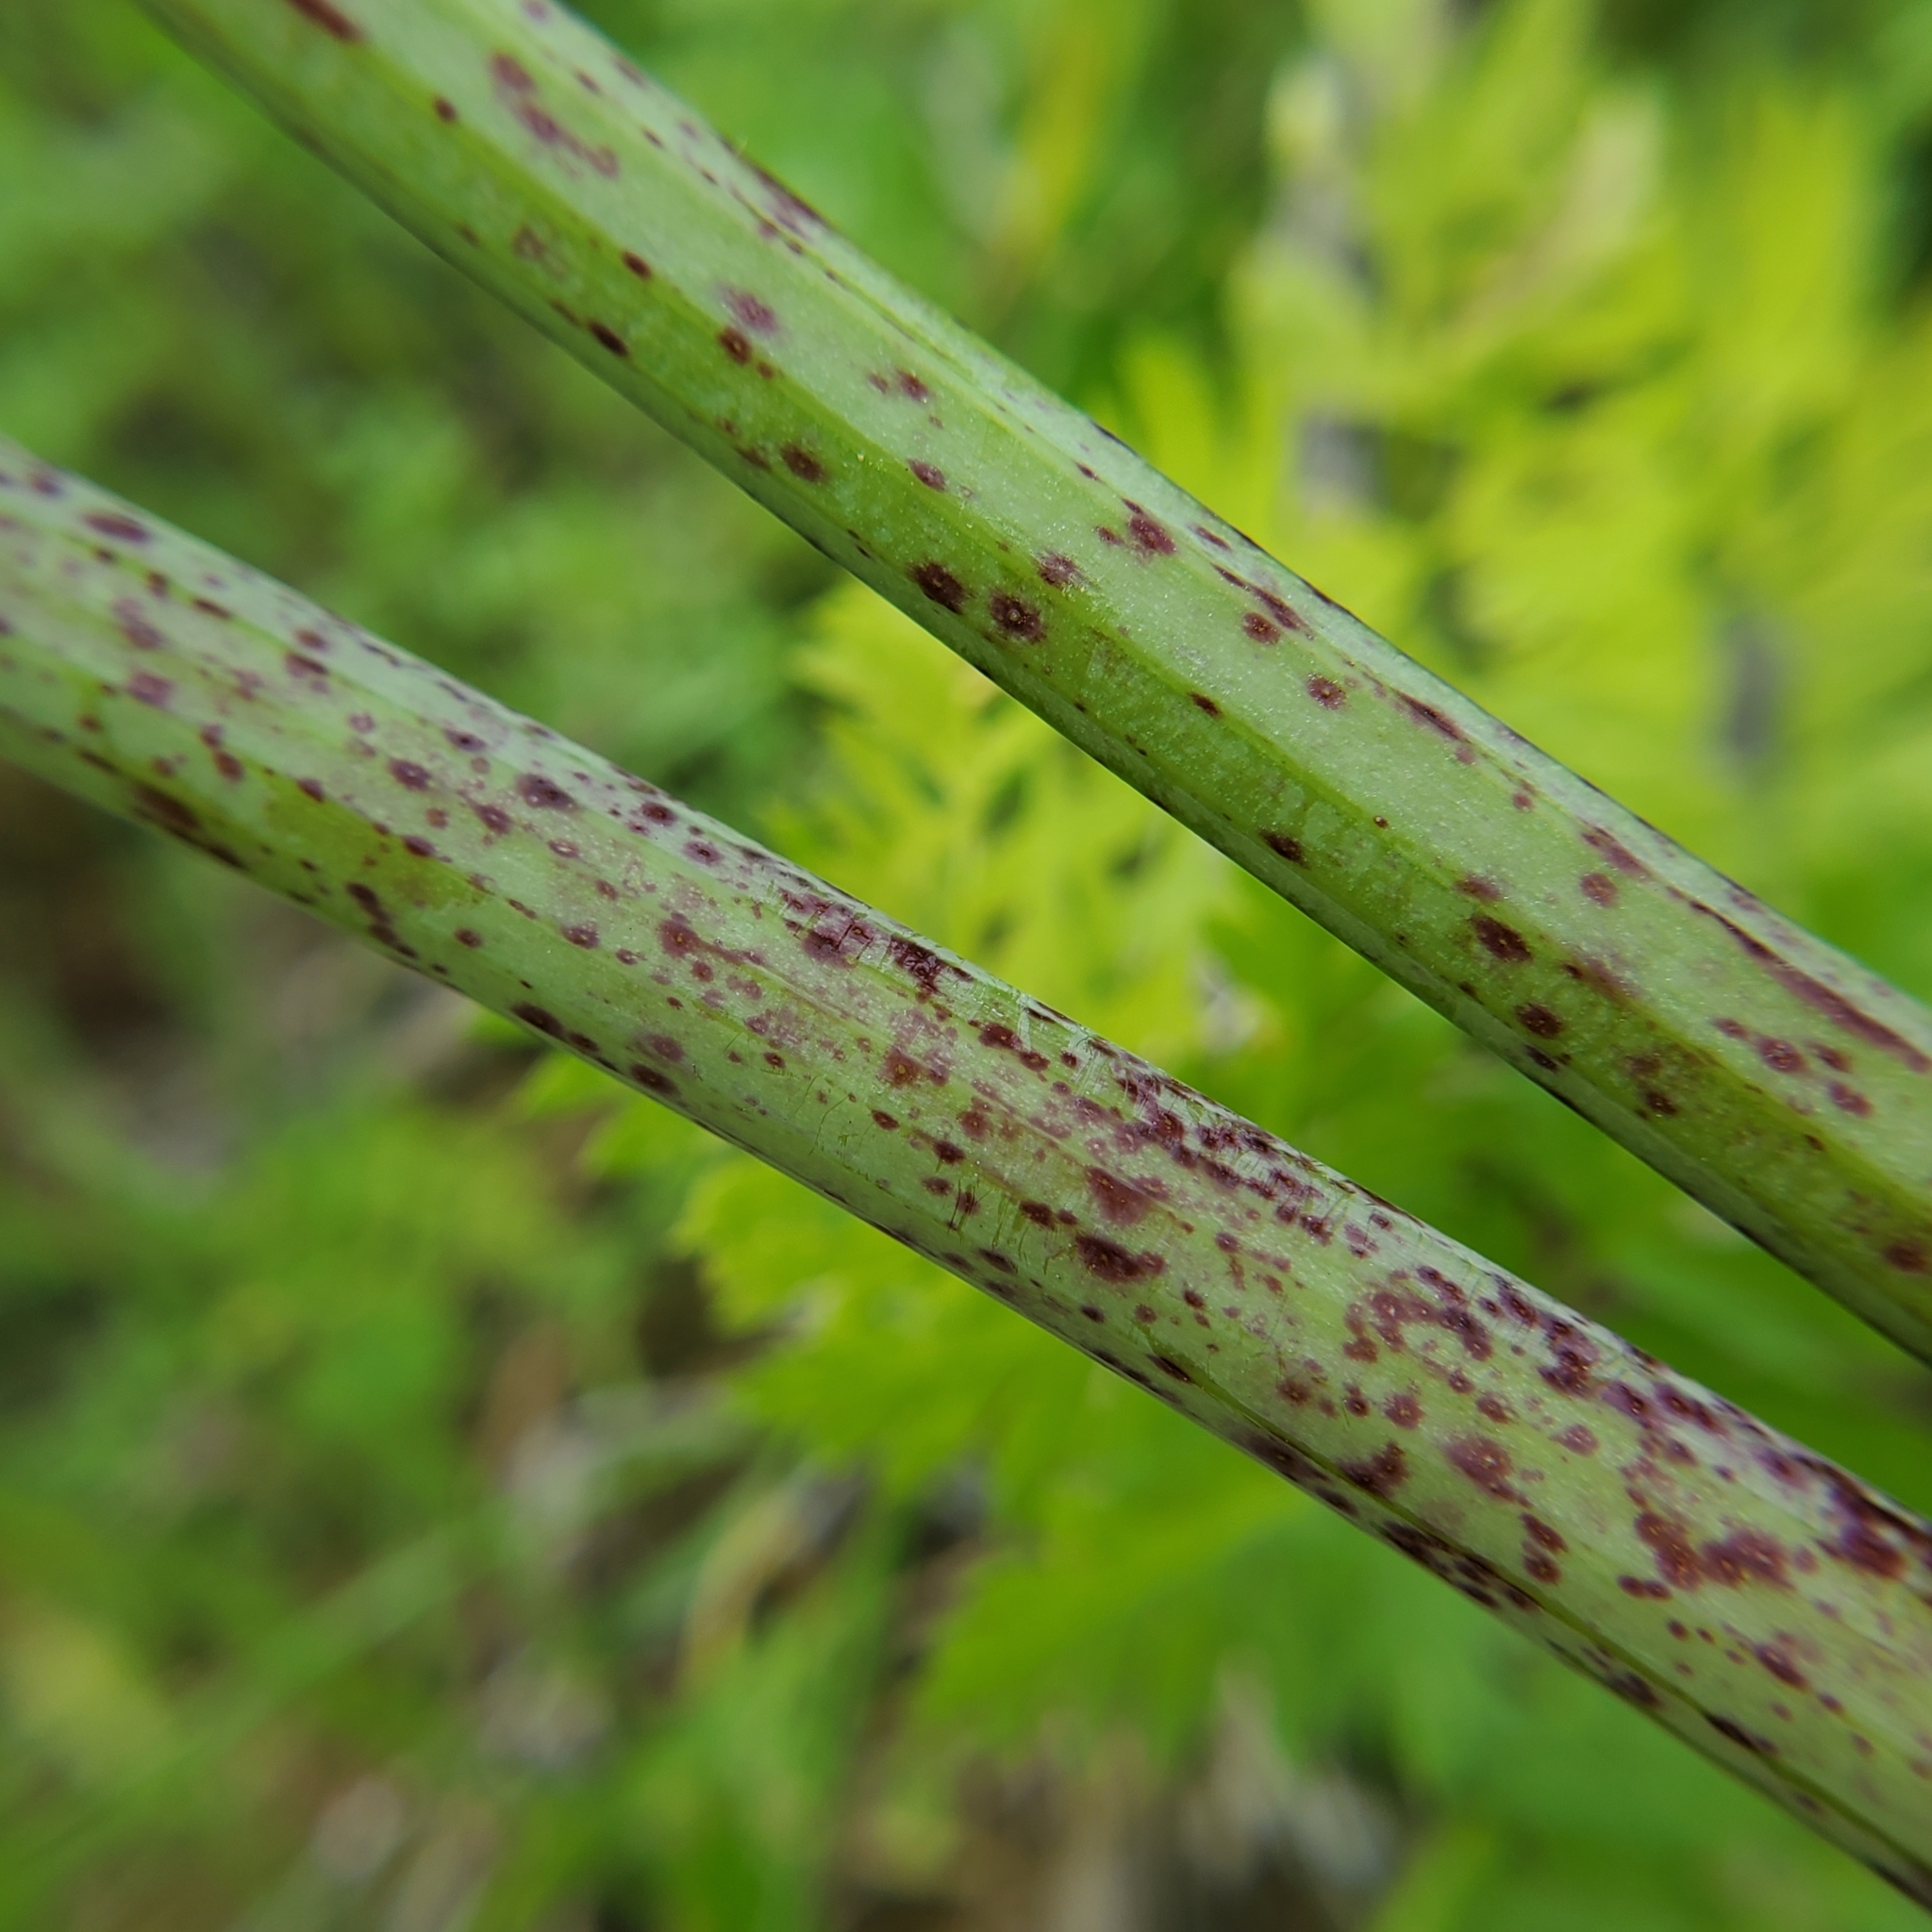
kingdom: Plantae
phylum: Tracheophyta
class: Magnoliopsida
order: Apiales
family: Apiaceae
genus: Conium
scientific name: Conium maculatum
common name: Hemlock
